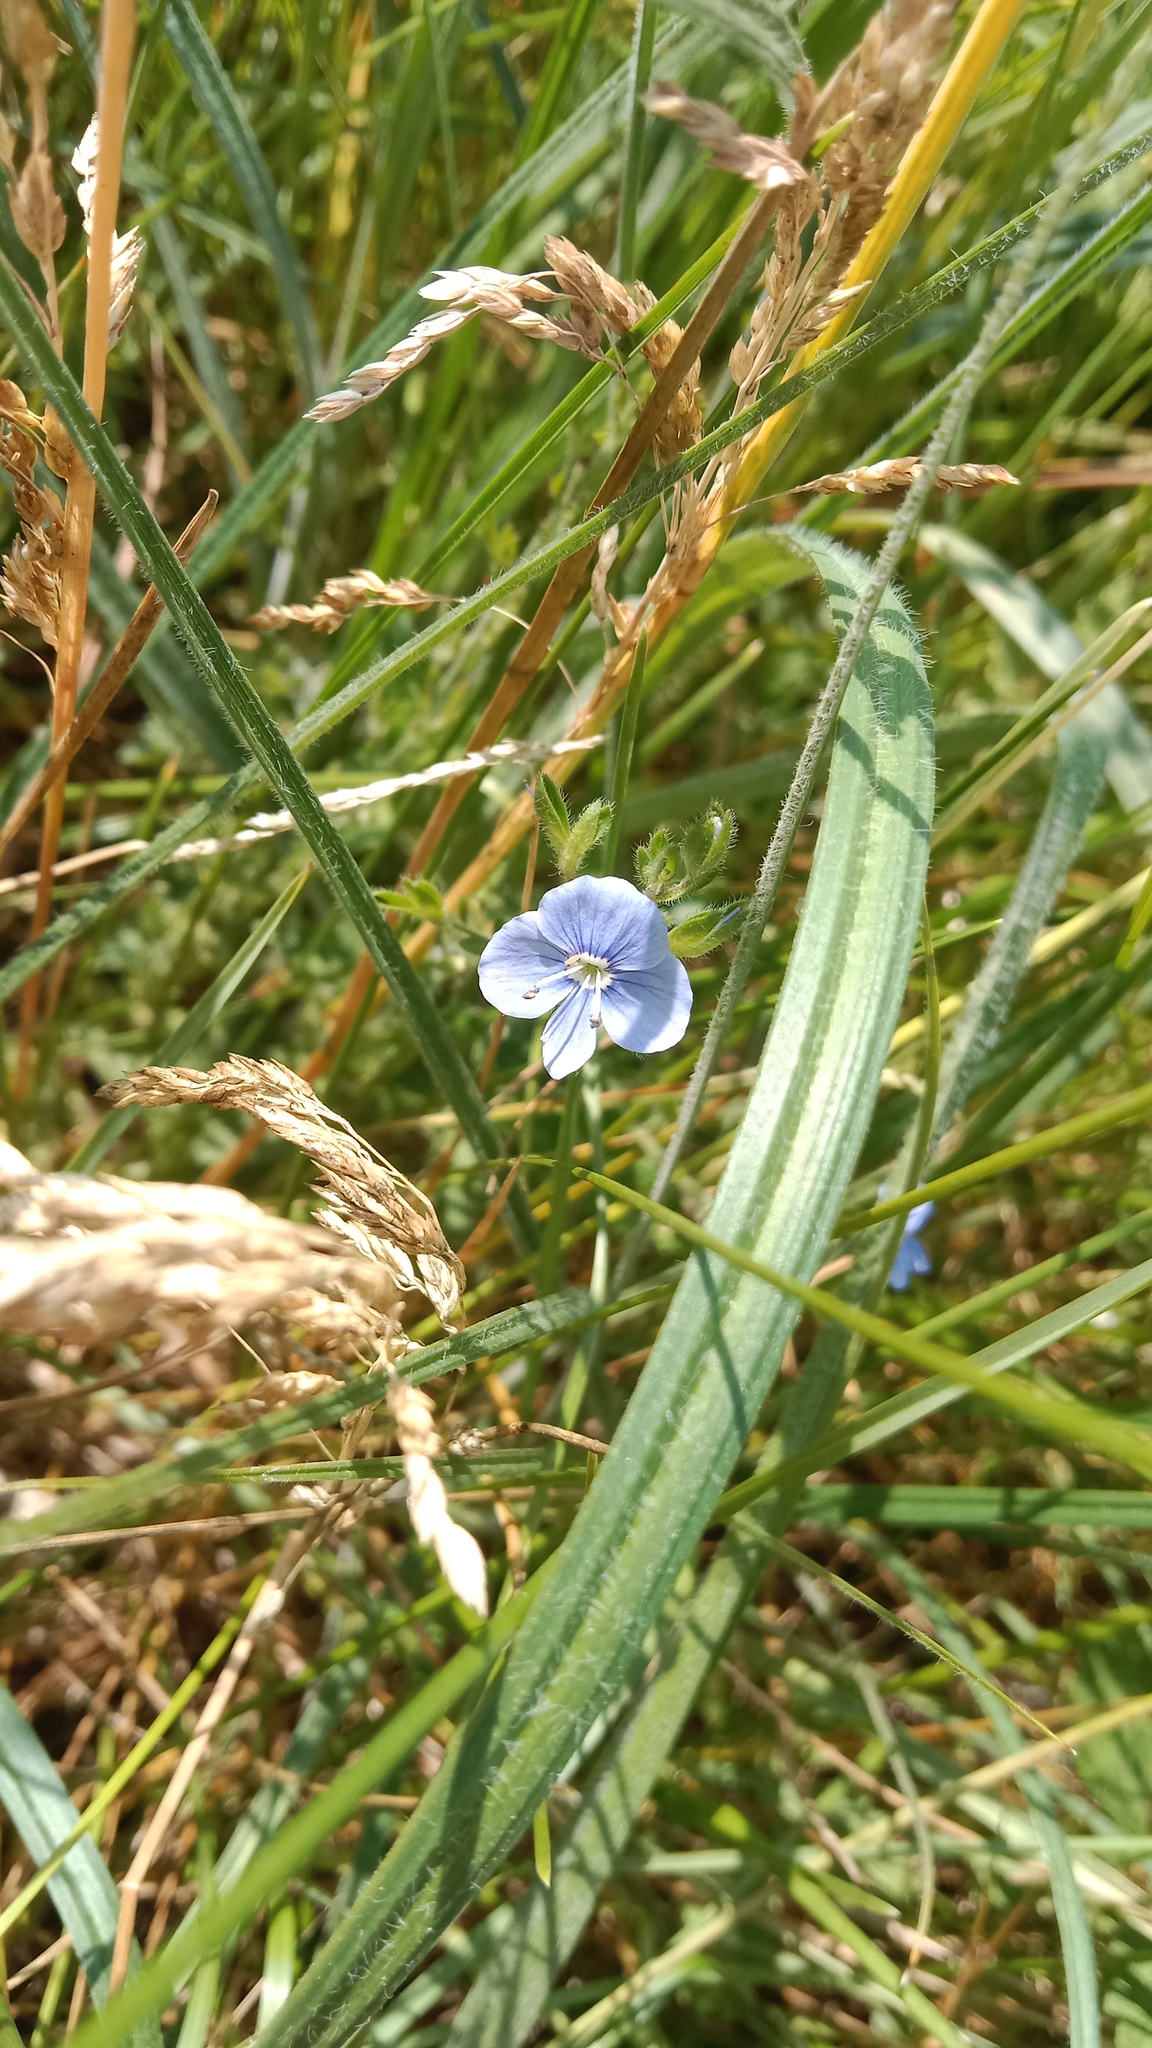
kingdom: Plantae
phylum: Tracheophyta
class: Magnoliopsida
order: Lamiales
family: Plantaginaceae
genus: Veronica
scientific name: Veronica chamaedrys
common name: Germander speedwell
